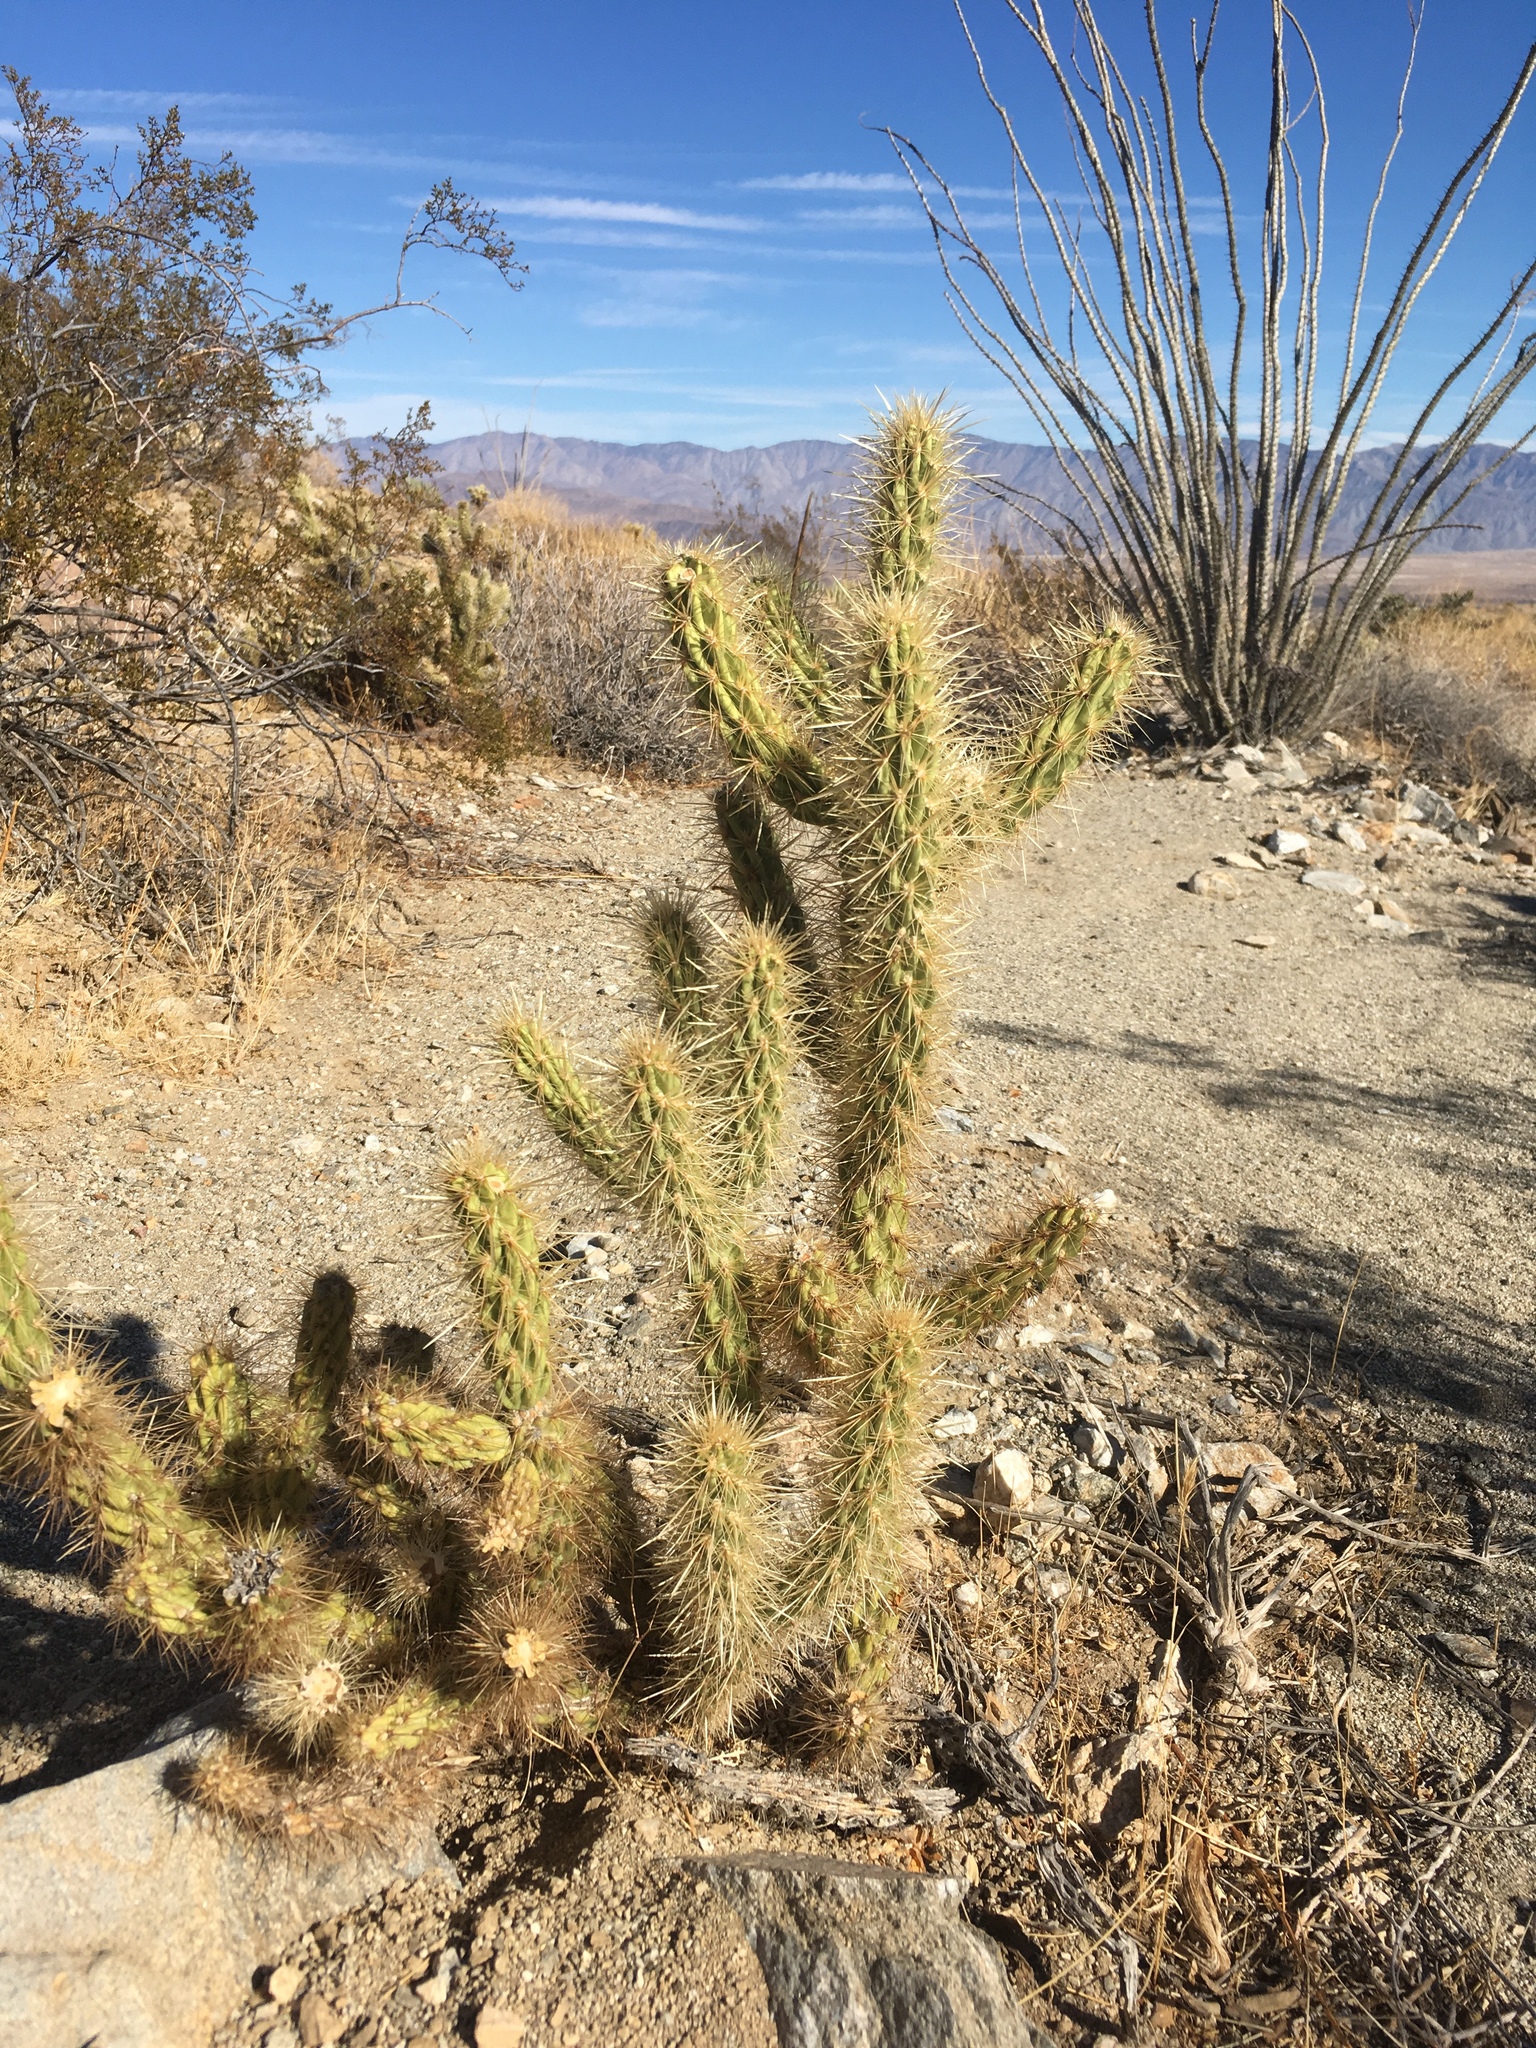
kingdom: Plantae
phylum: Tracheophyta
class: Magnoliopsida
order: Caryophyllales
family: Cactaceae
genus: Cylindropuntia
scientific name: Cylindropuntia ganderi
